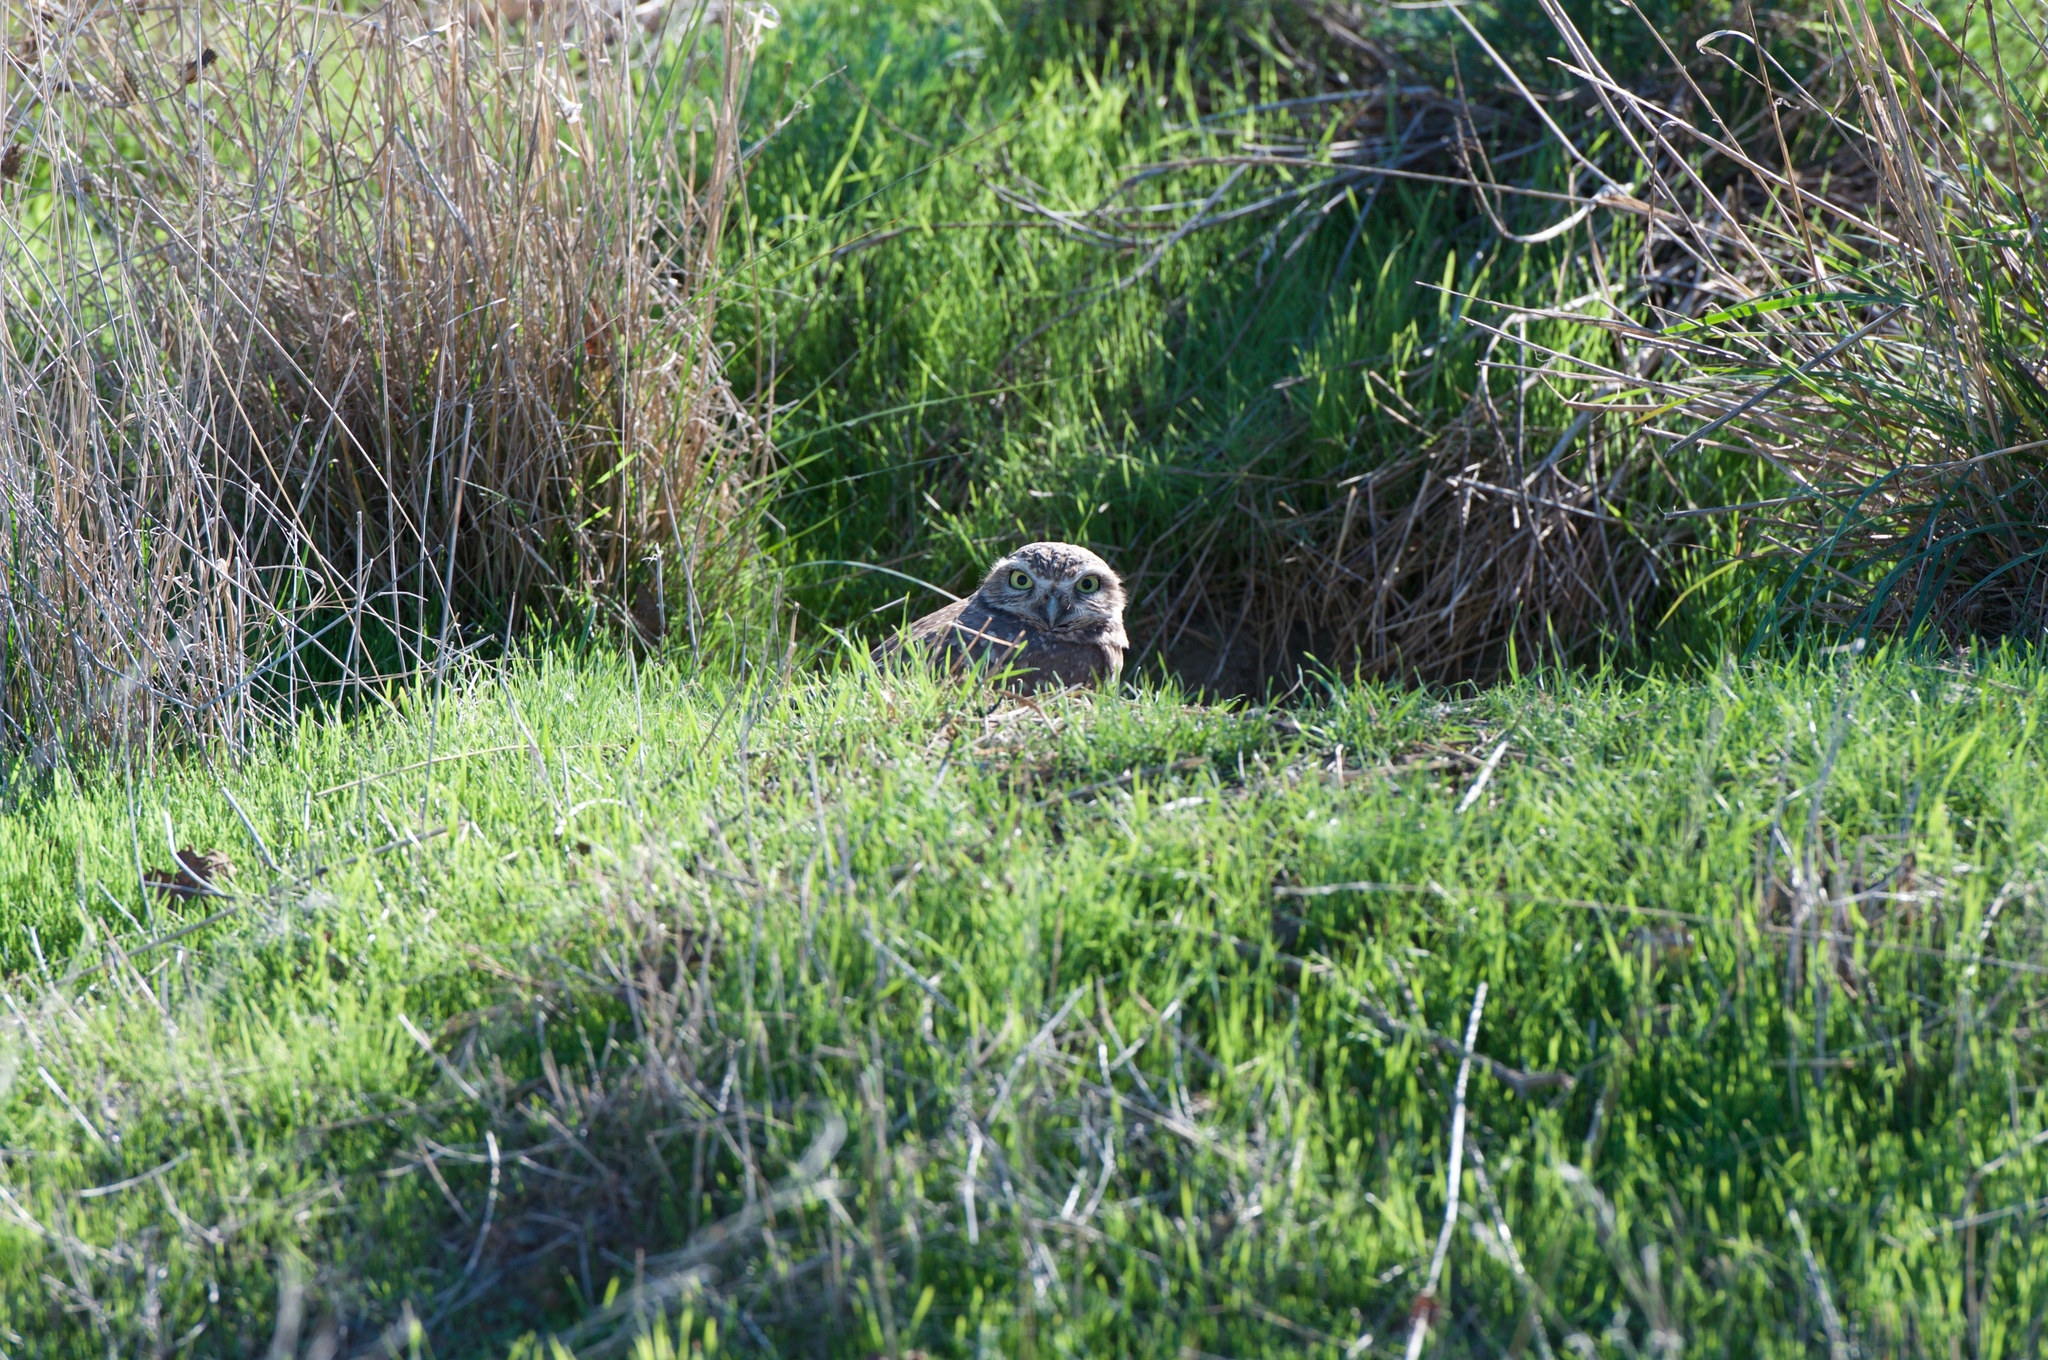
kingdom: Animalia
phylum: Chordata
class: Aves
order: Strigiformes
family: Strigidae
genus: Athene
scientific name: Athene cunicularia
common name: Burrowing owl
